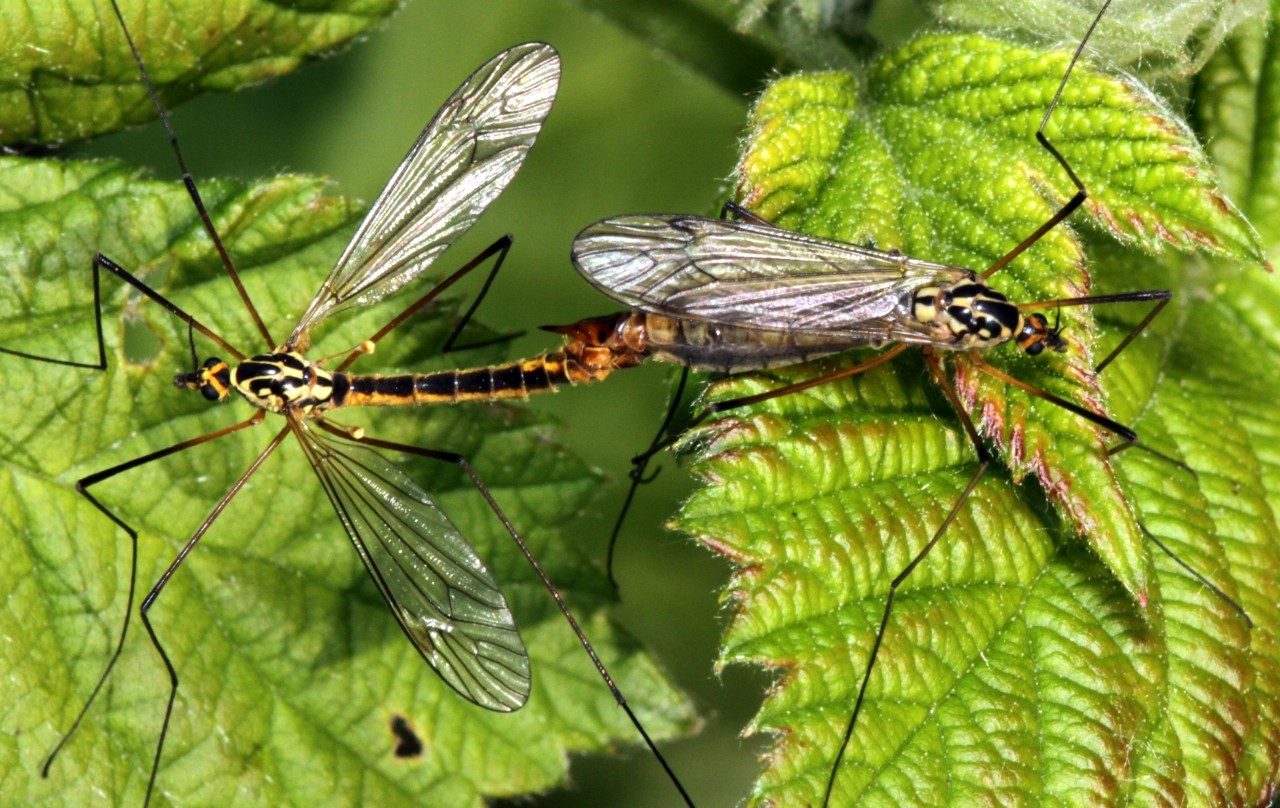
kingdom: Animalia
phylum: Arthropoda
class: Insecta
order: Diptera
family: Tipulidae
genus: Nephrotoma
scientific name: Nephrotoma appendiculata
